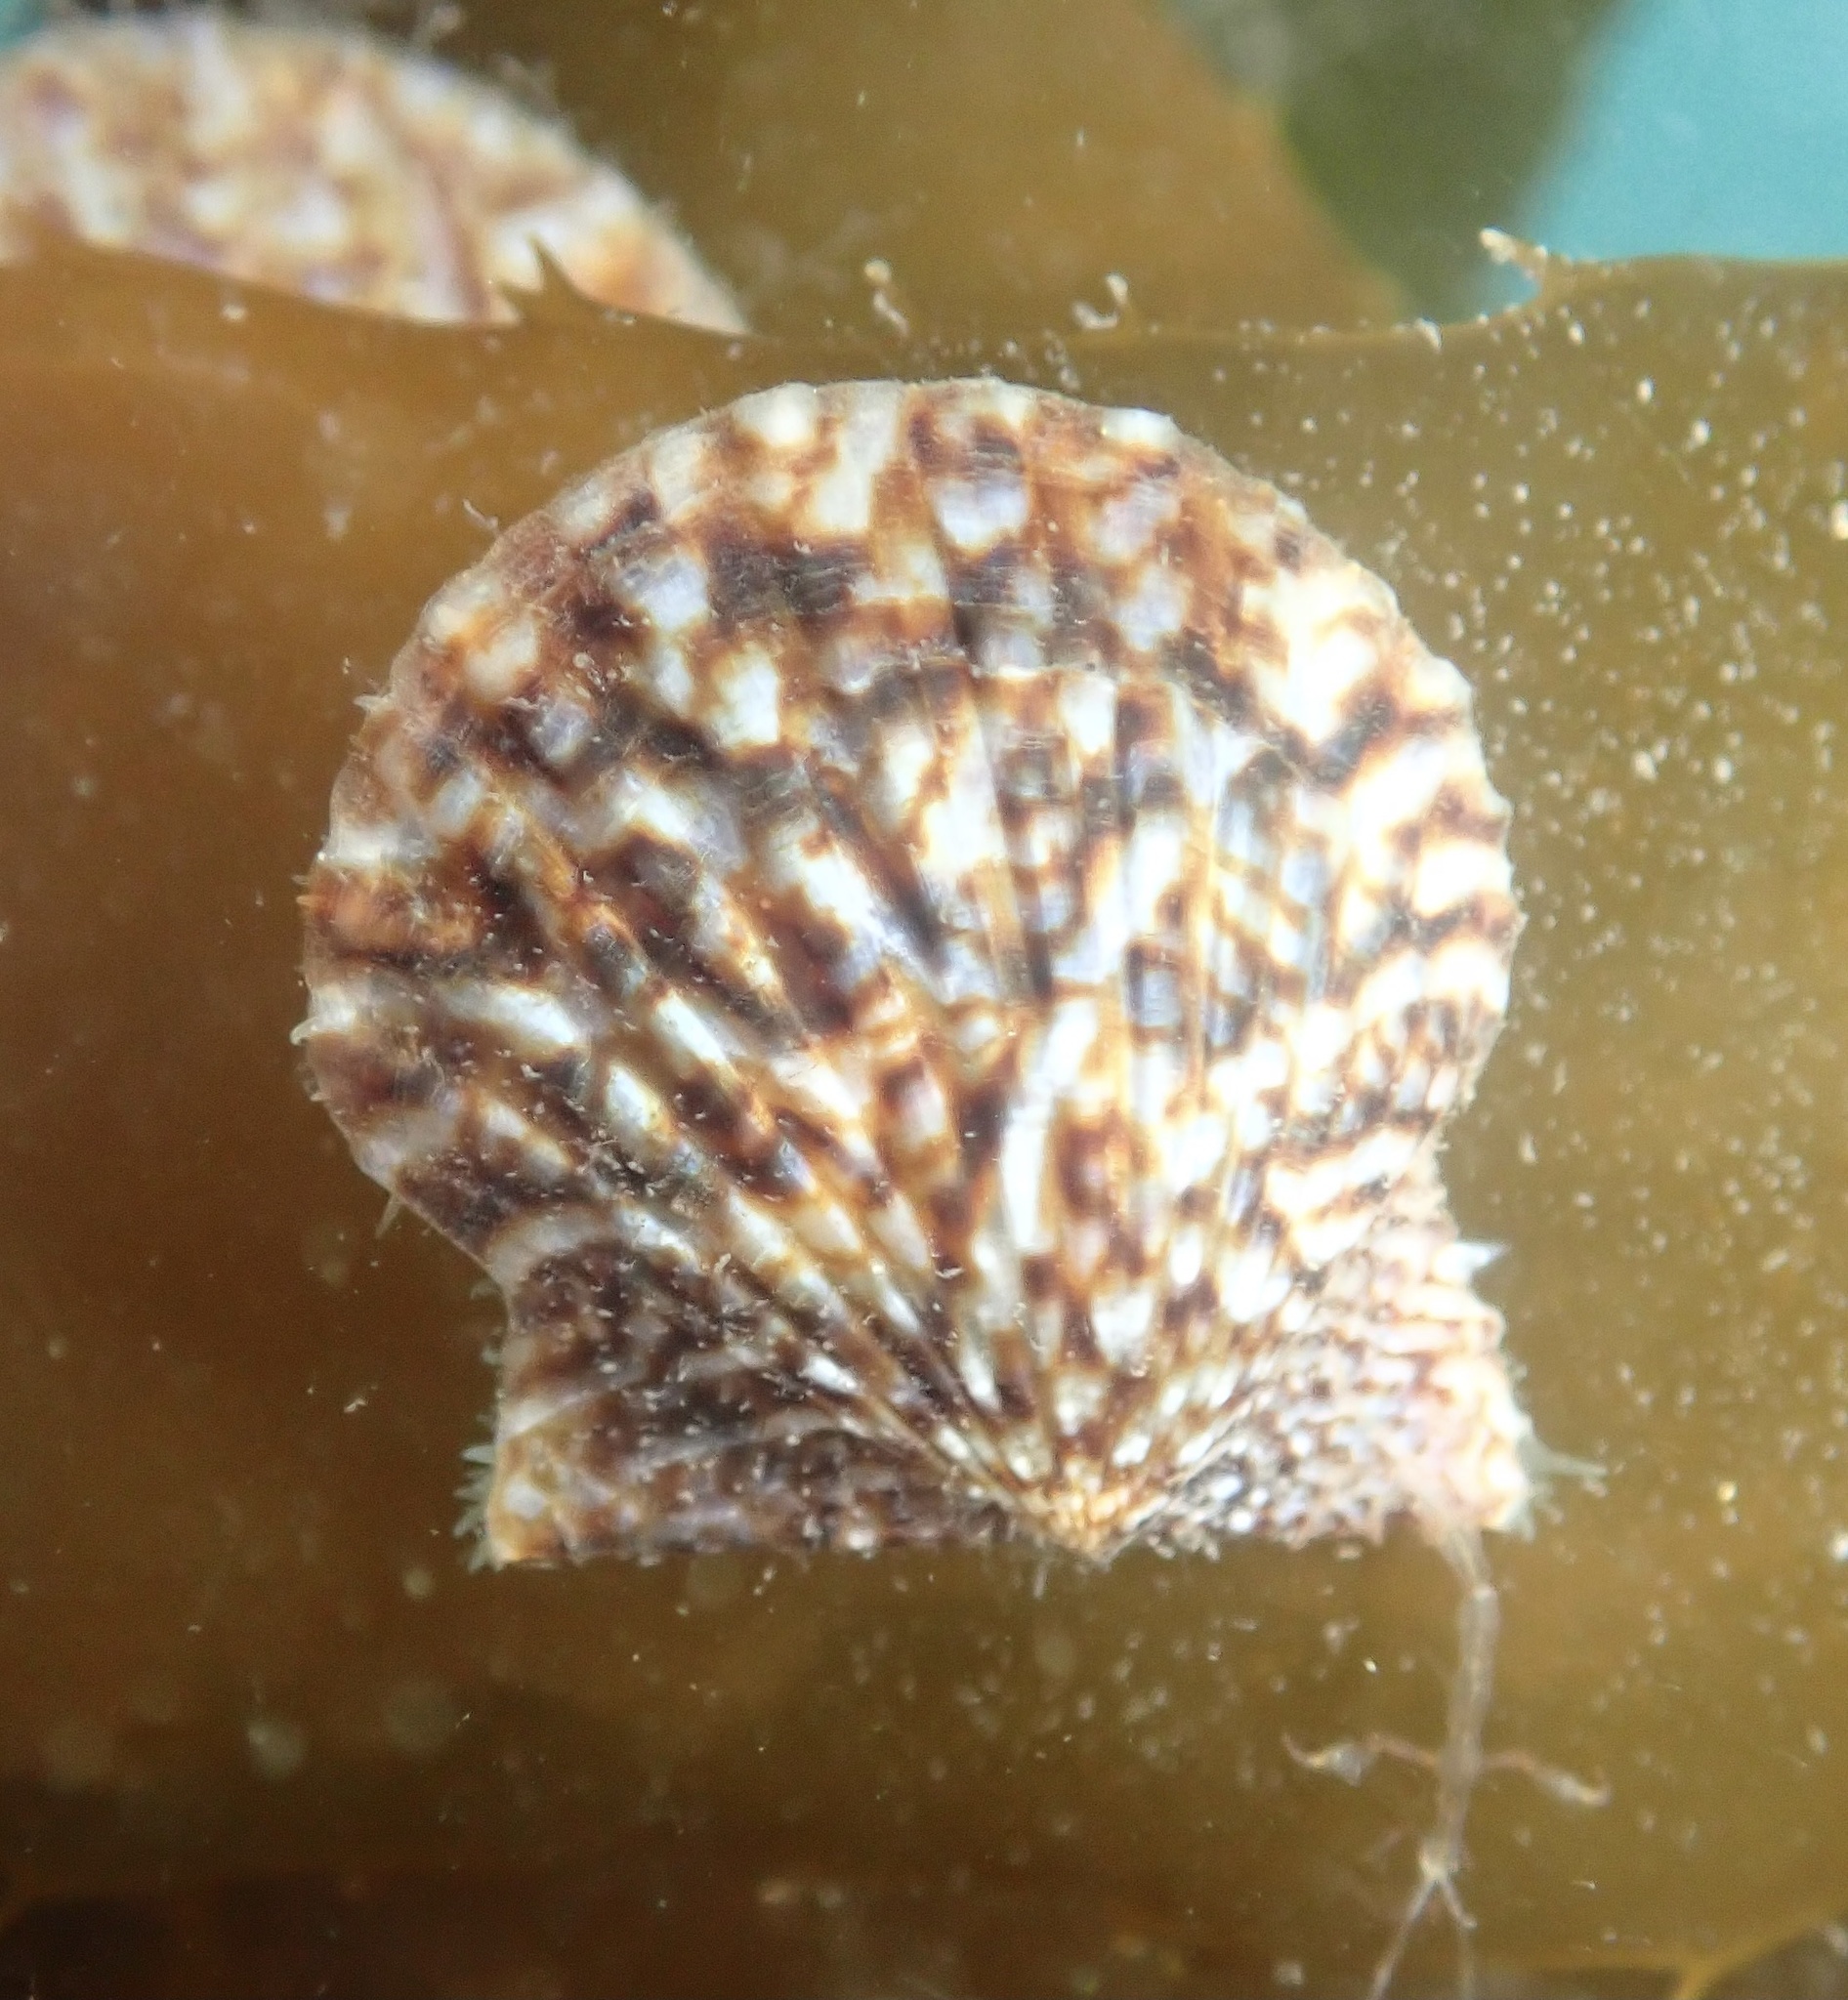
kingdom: Animalia
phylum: Mollusca
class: Bivalvia
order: Pectinida
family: Pectinidae
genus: Leptopecten
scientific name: Leptopecten latiauratus
